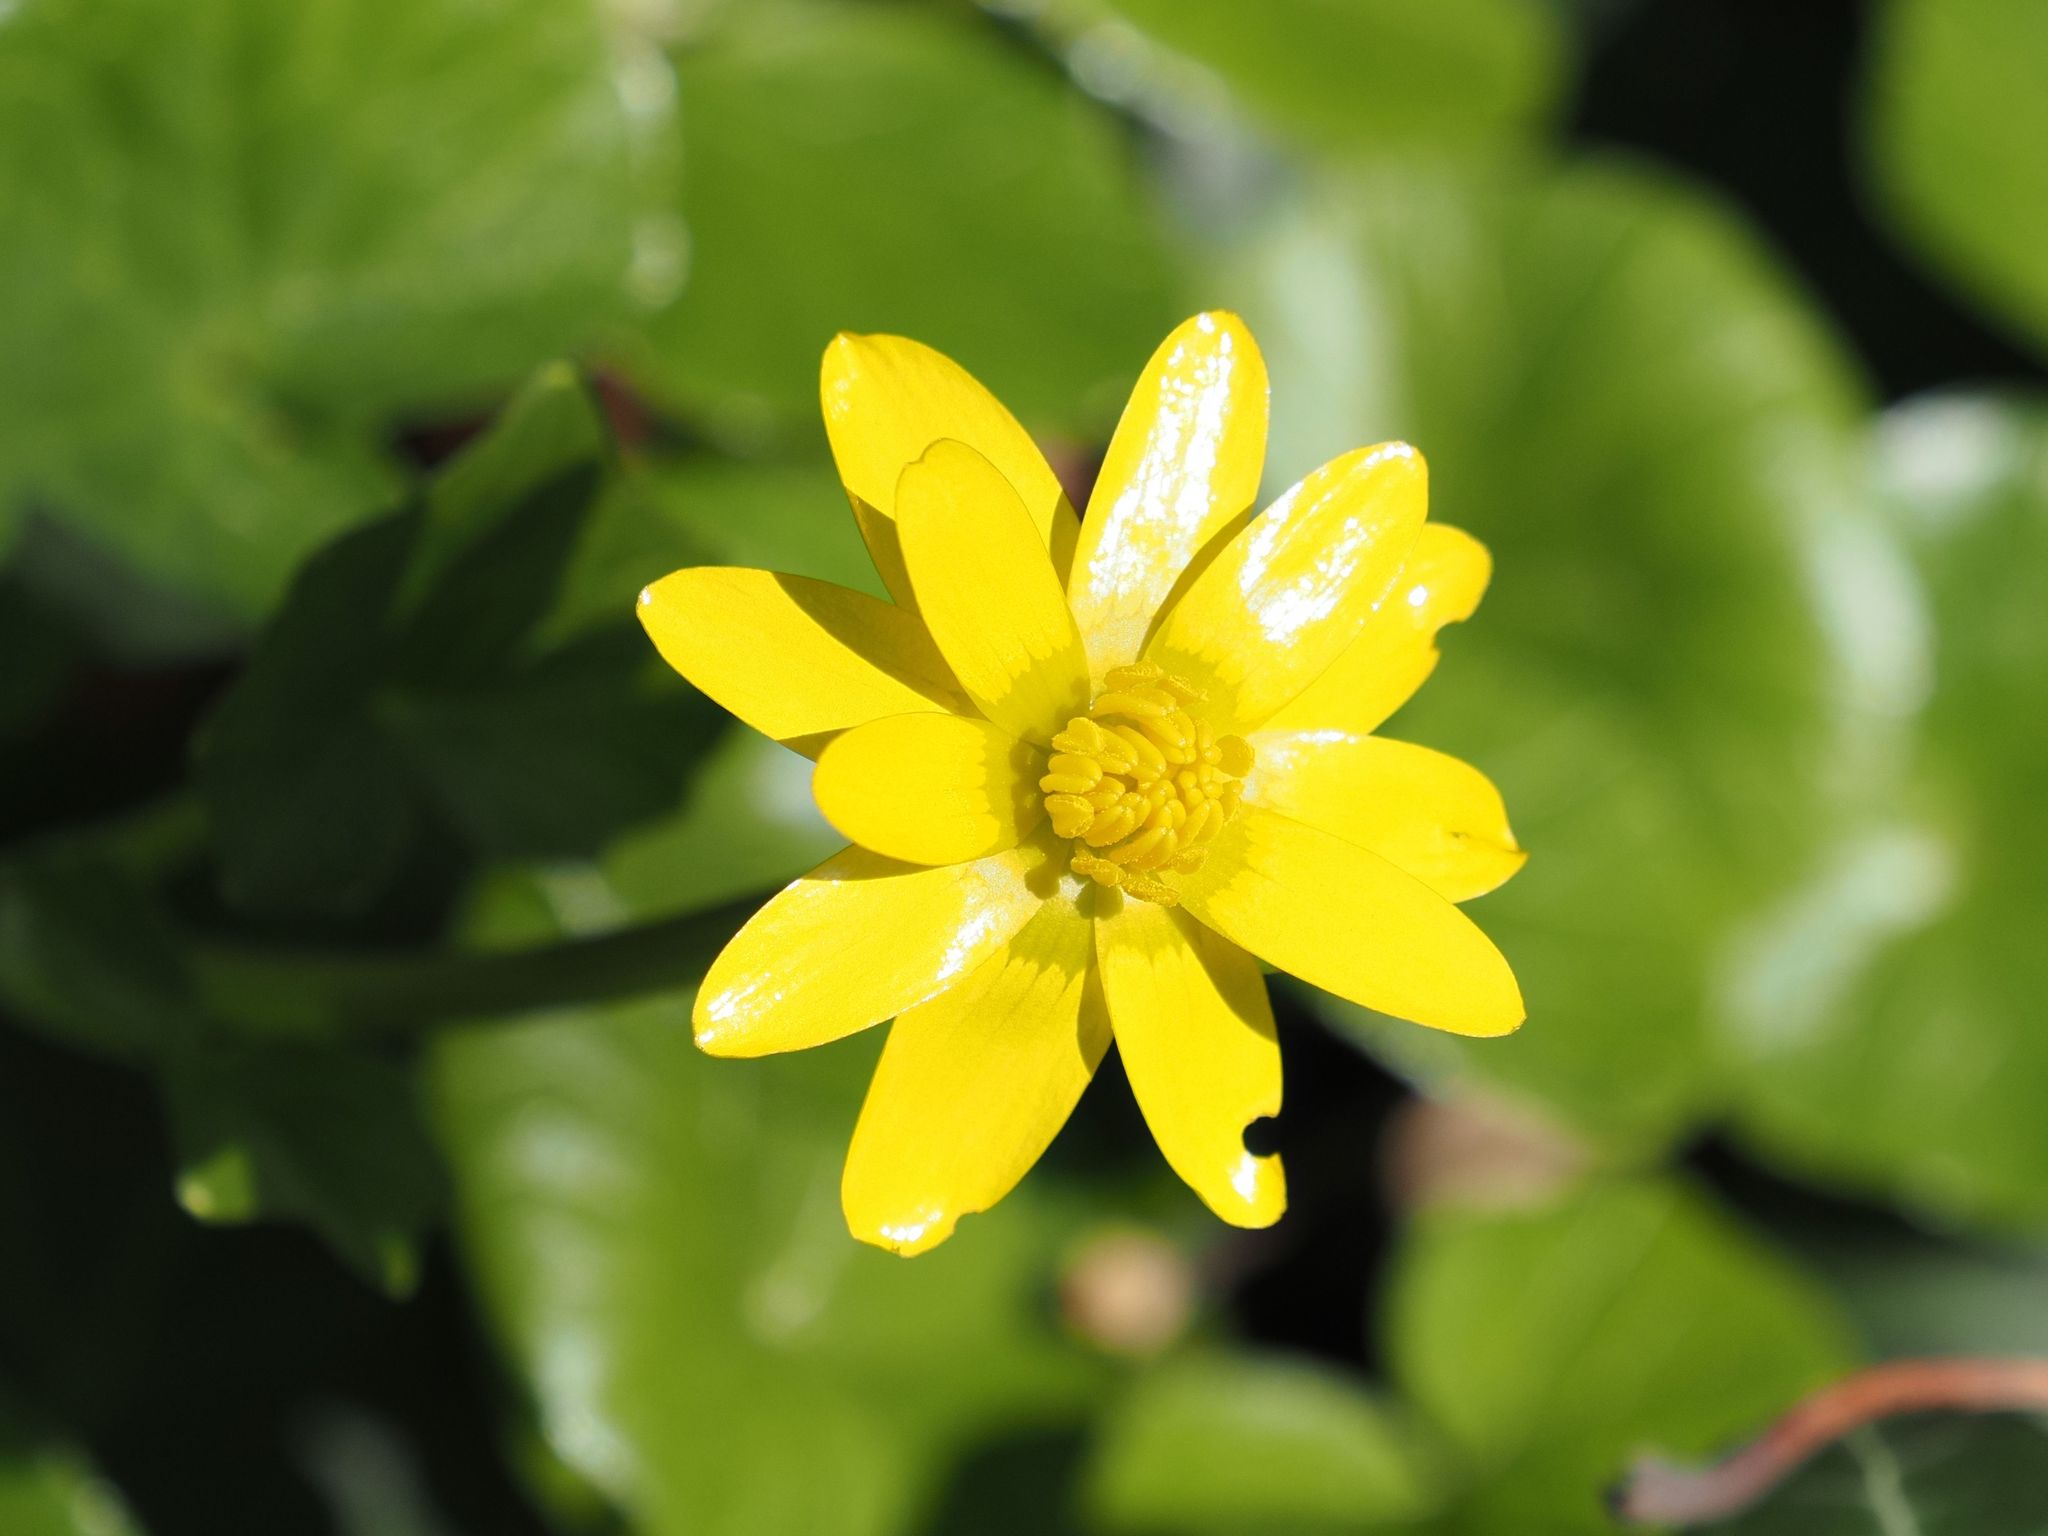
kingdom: Plantae
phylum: Tracheophyta
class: Magnoliopsida
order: Ranunculales
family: Ranunculaceae
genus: Ficaria
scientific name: Ficaria verna
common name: Lesser celandine
